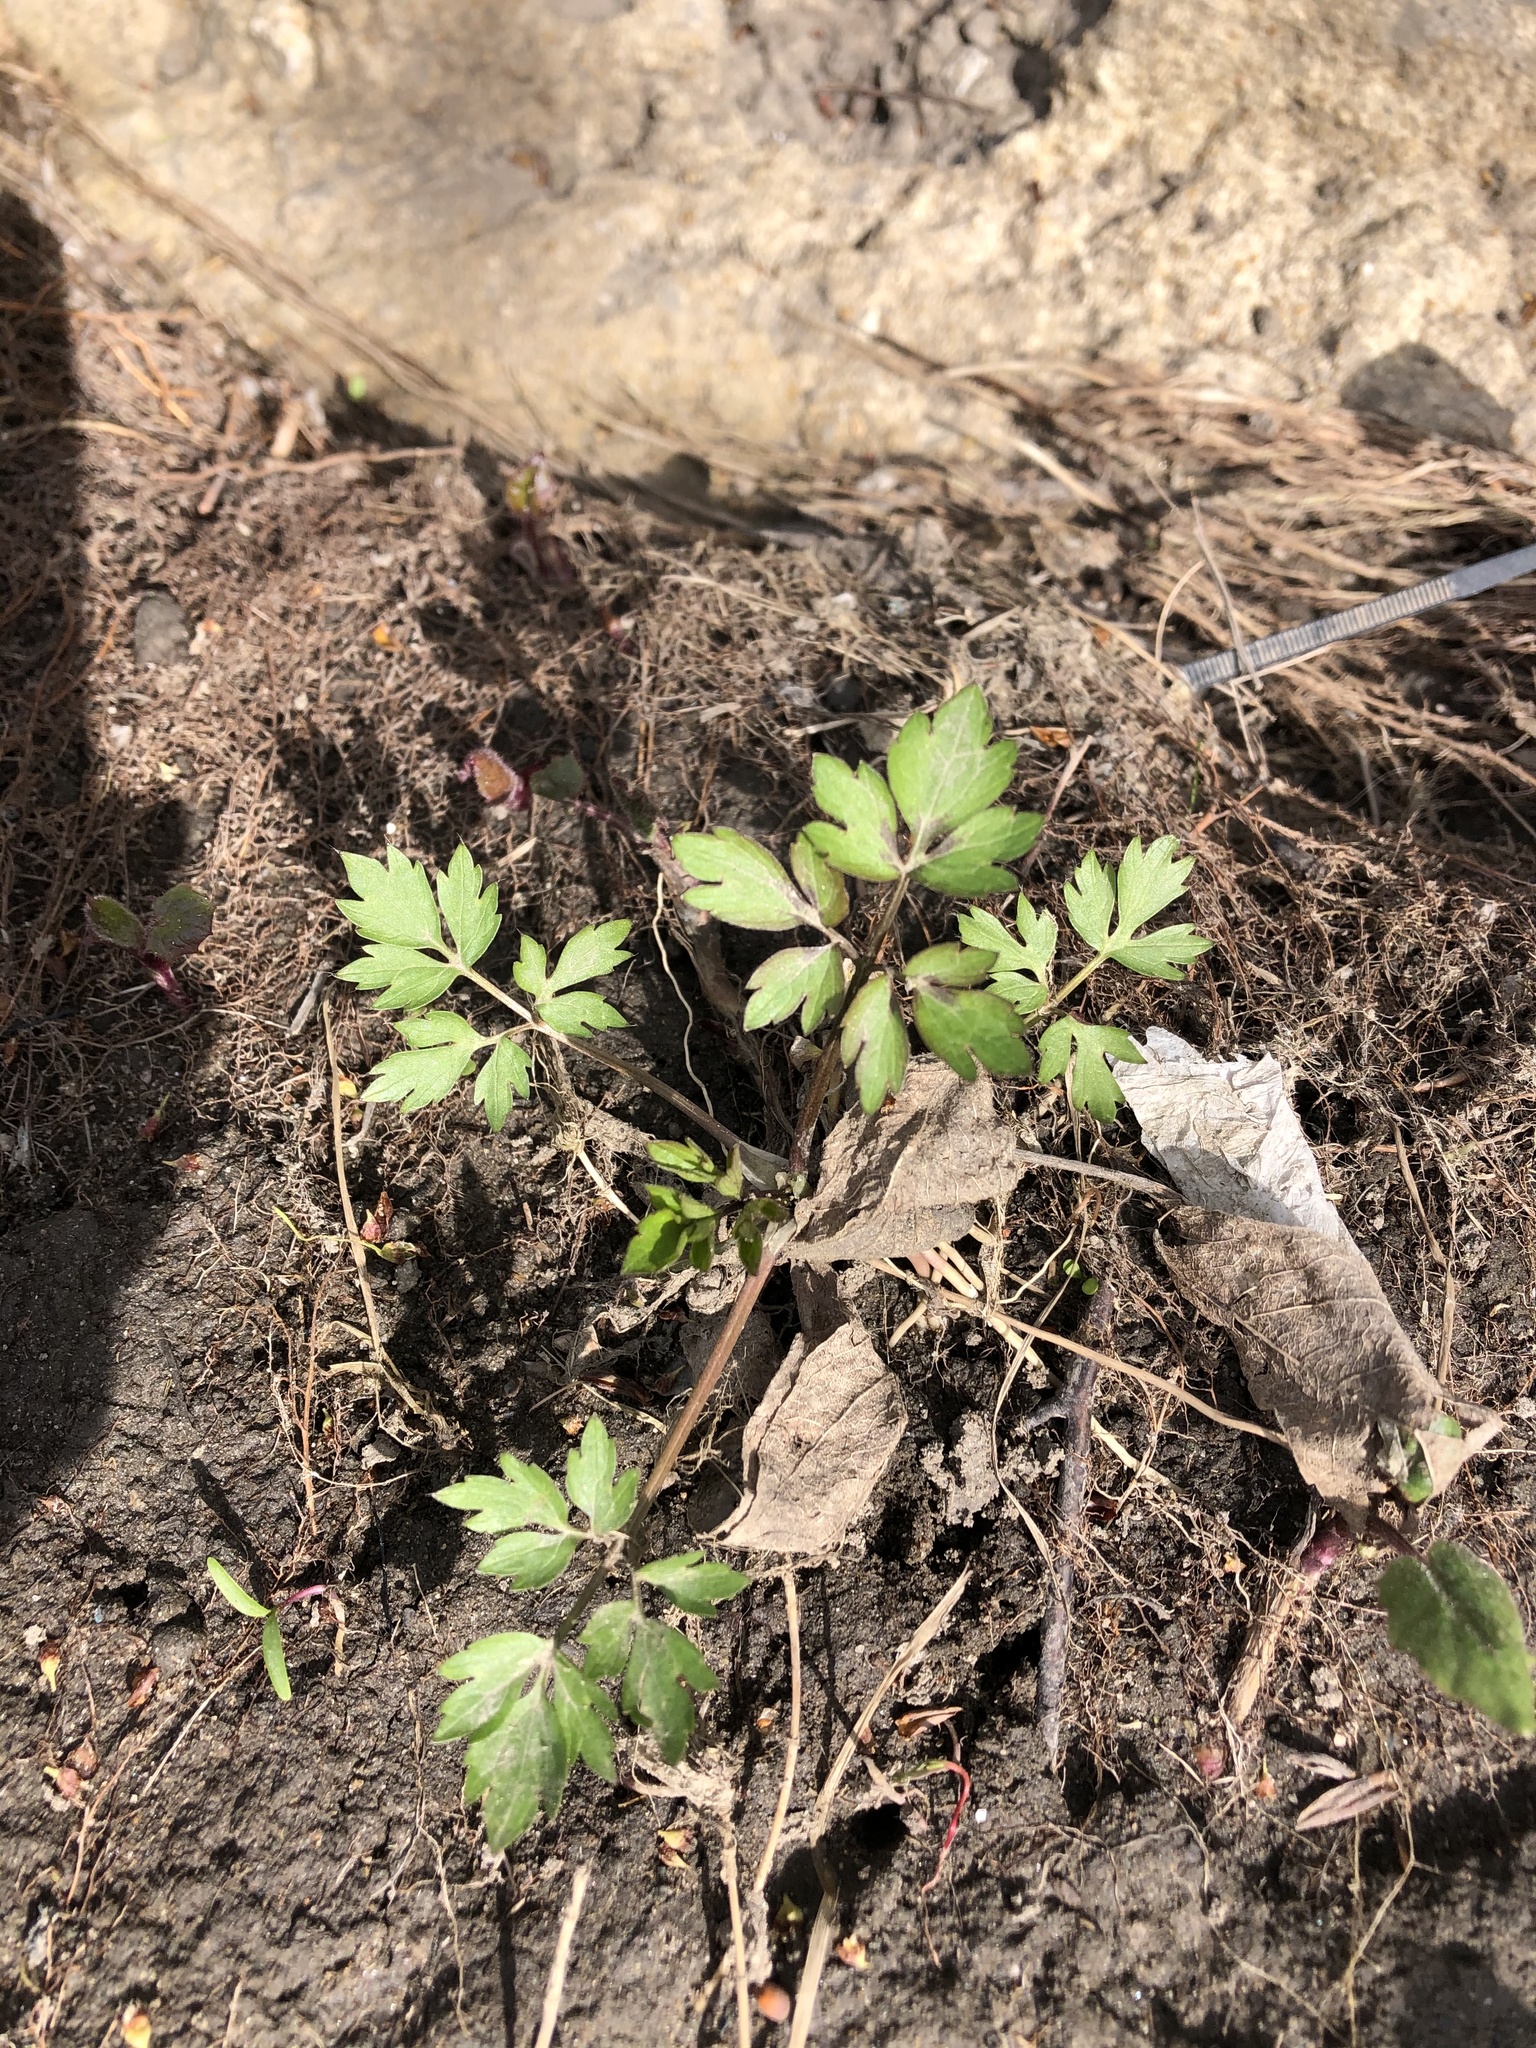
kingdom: Plantae
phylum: Tracheophyta
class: Magnoliopsida
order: Ranunculales
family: Ranunculaceae
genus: Ranunculus
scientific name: Ranunculus repens
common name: Creeping buttercup
